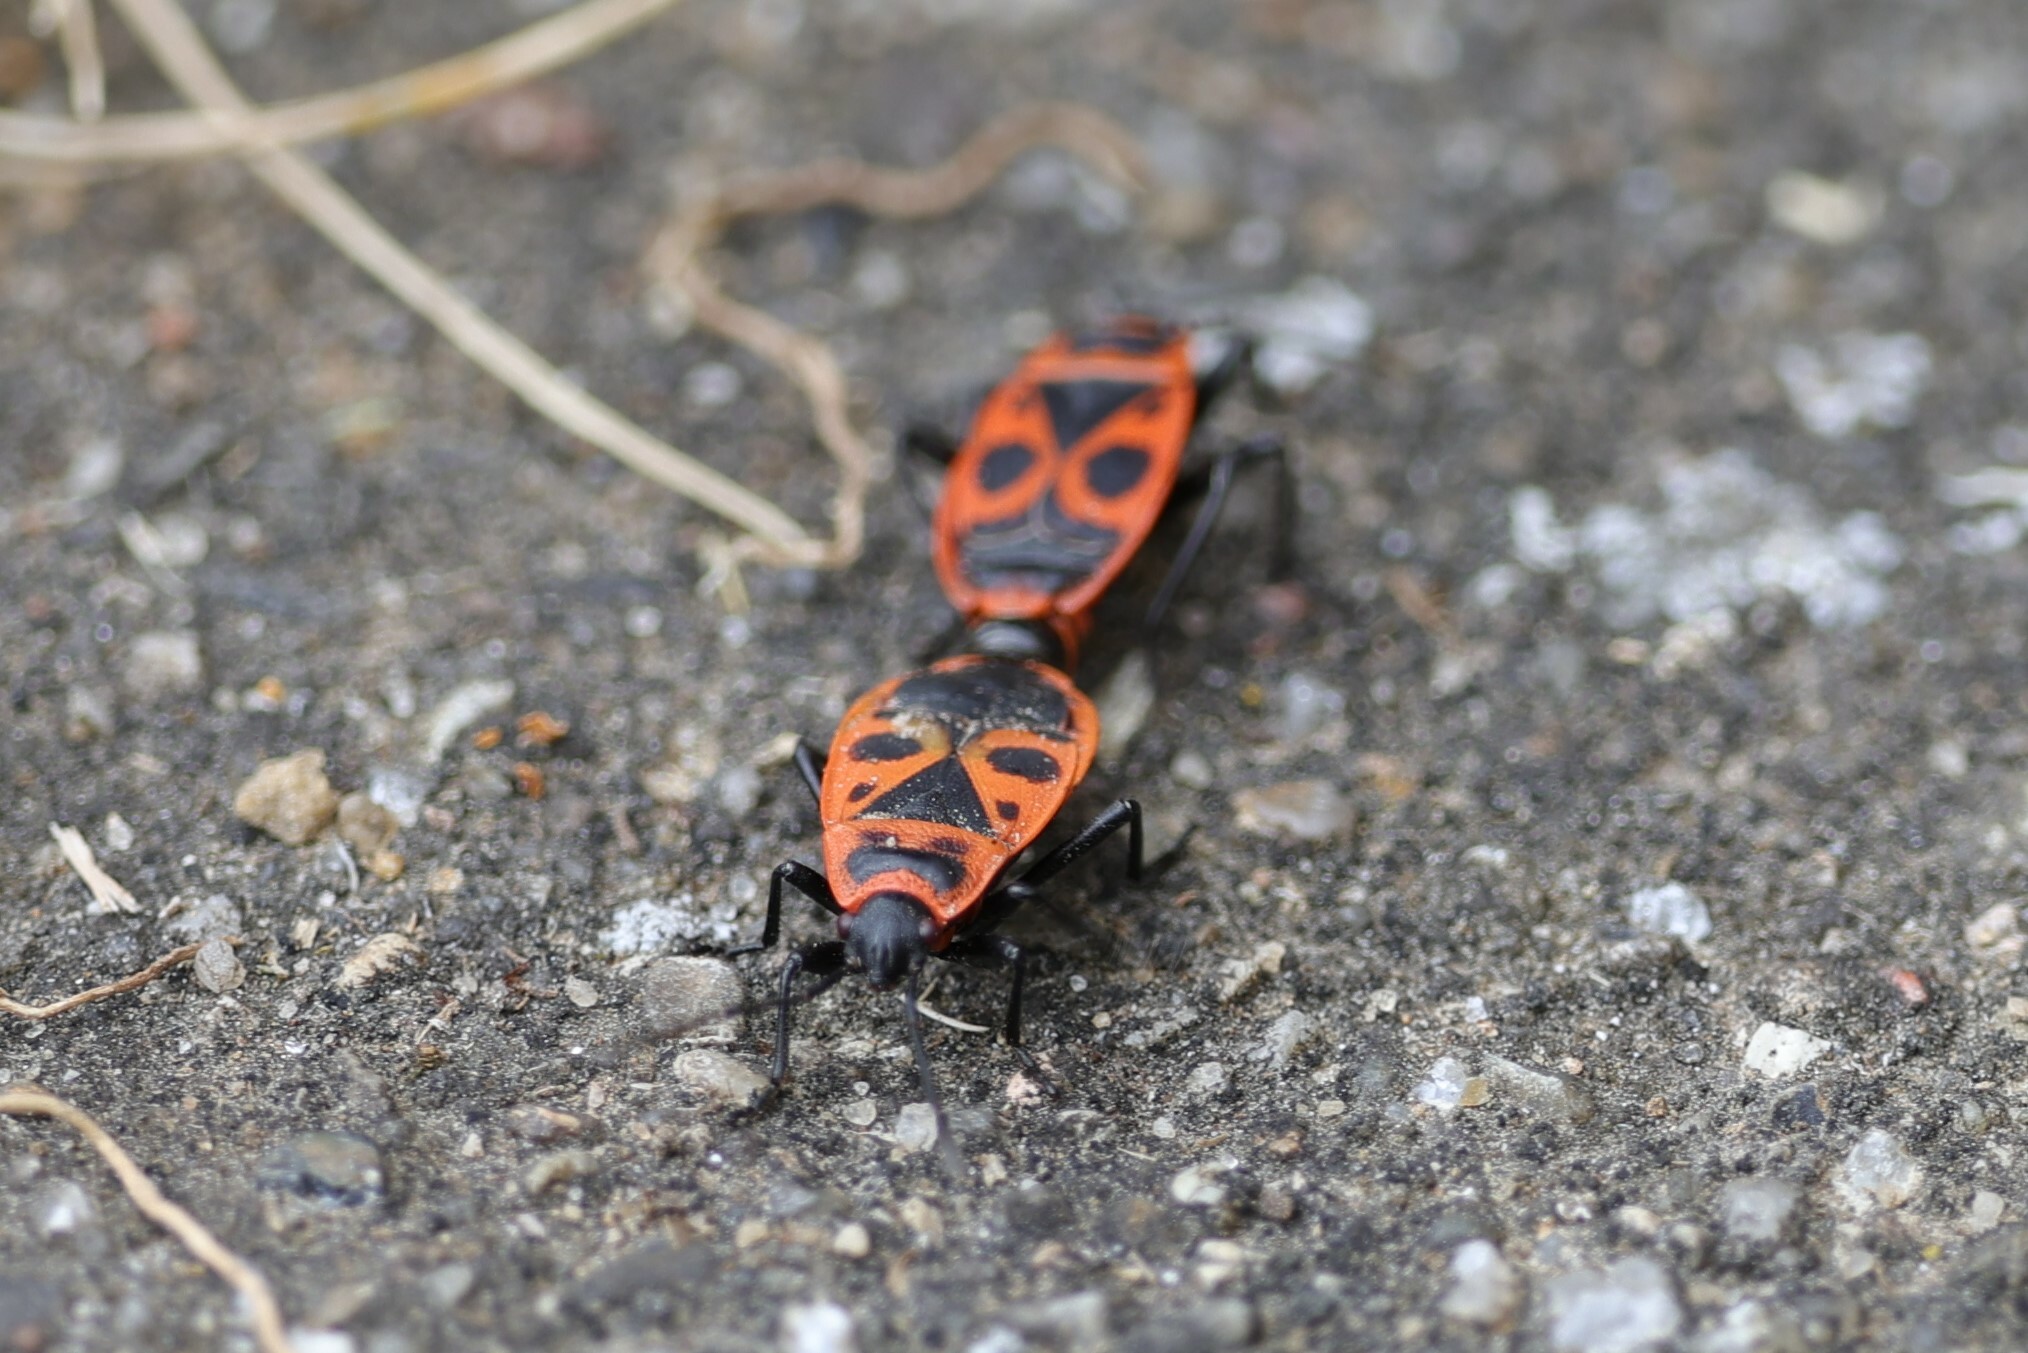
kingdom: Animalia
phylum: Arthropoda
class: Insecta
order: Hemiptera
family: Pyrrhocoridae
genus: Pyrrhocoris
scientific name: Pyrrhocoris apterus
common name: Firebug
